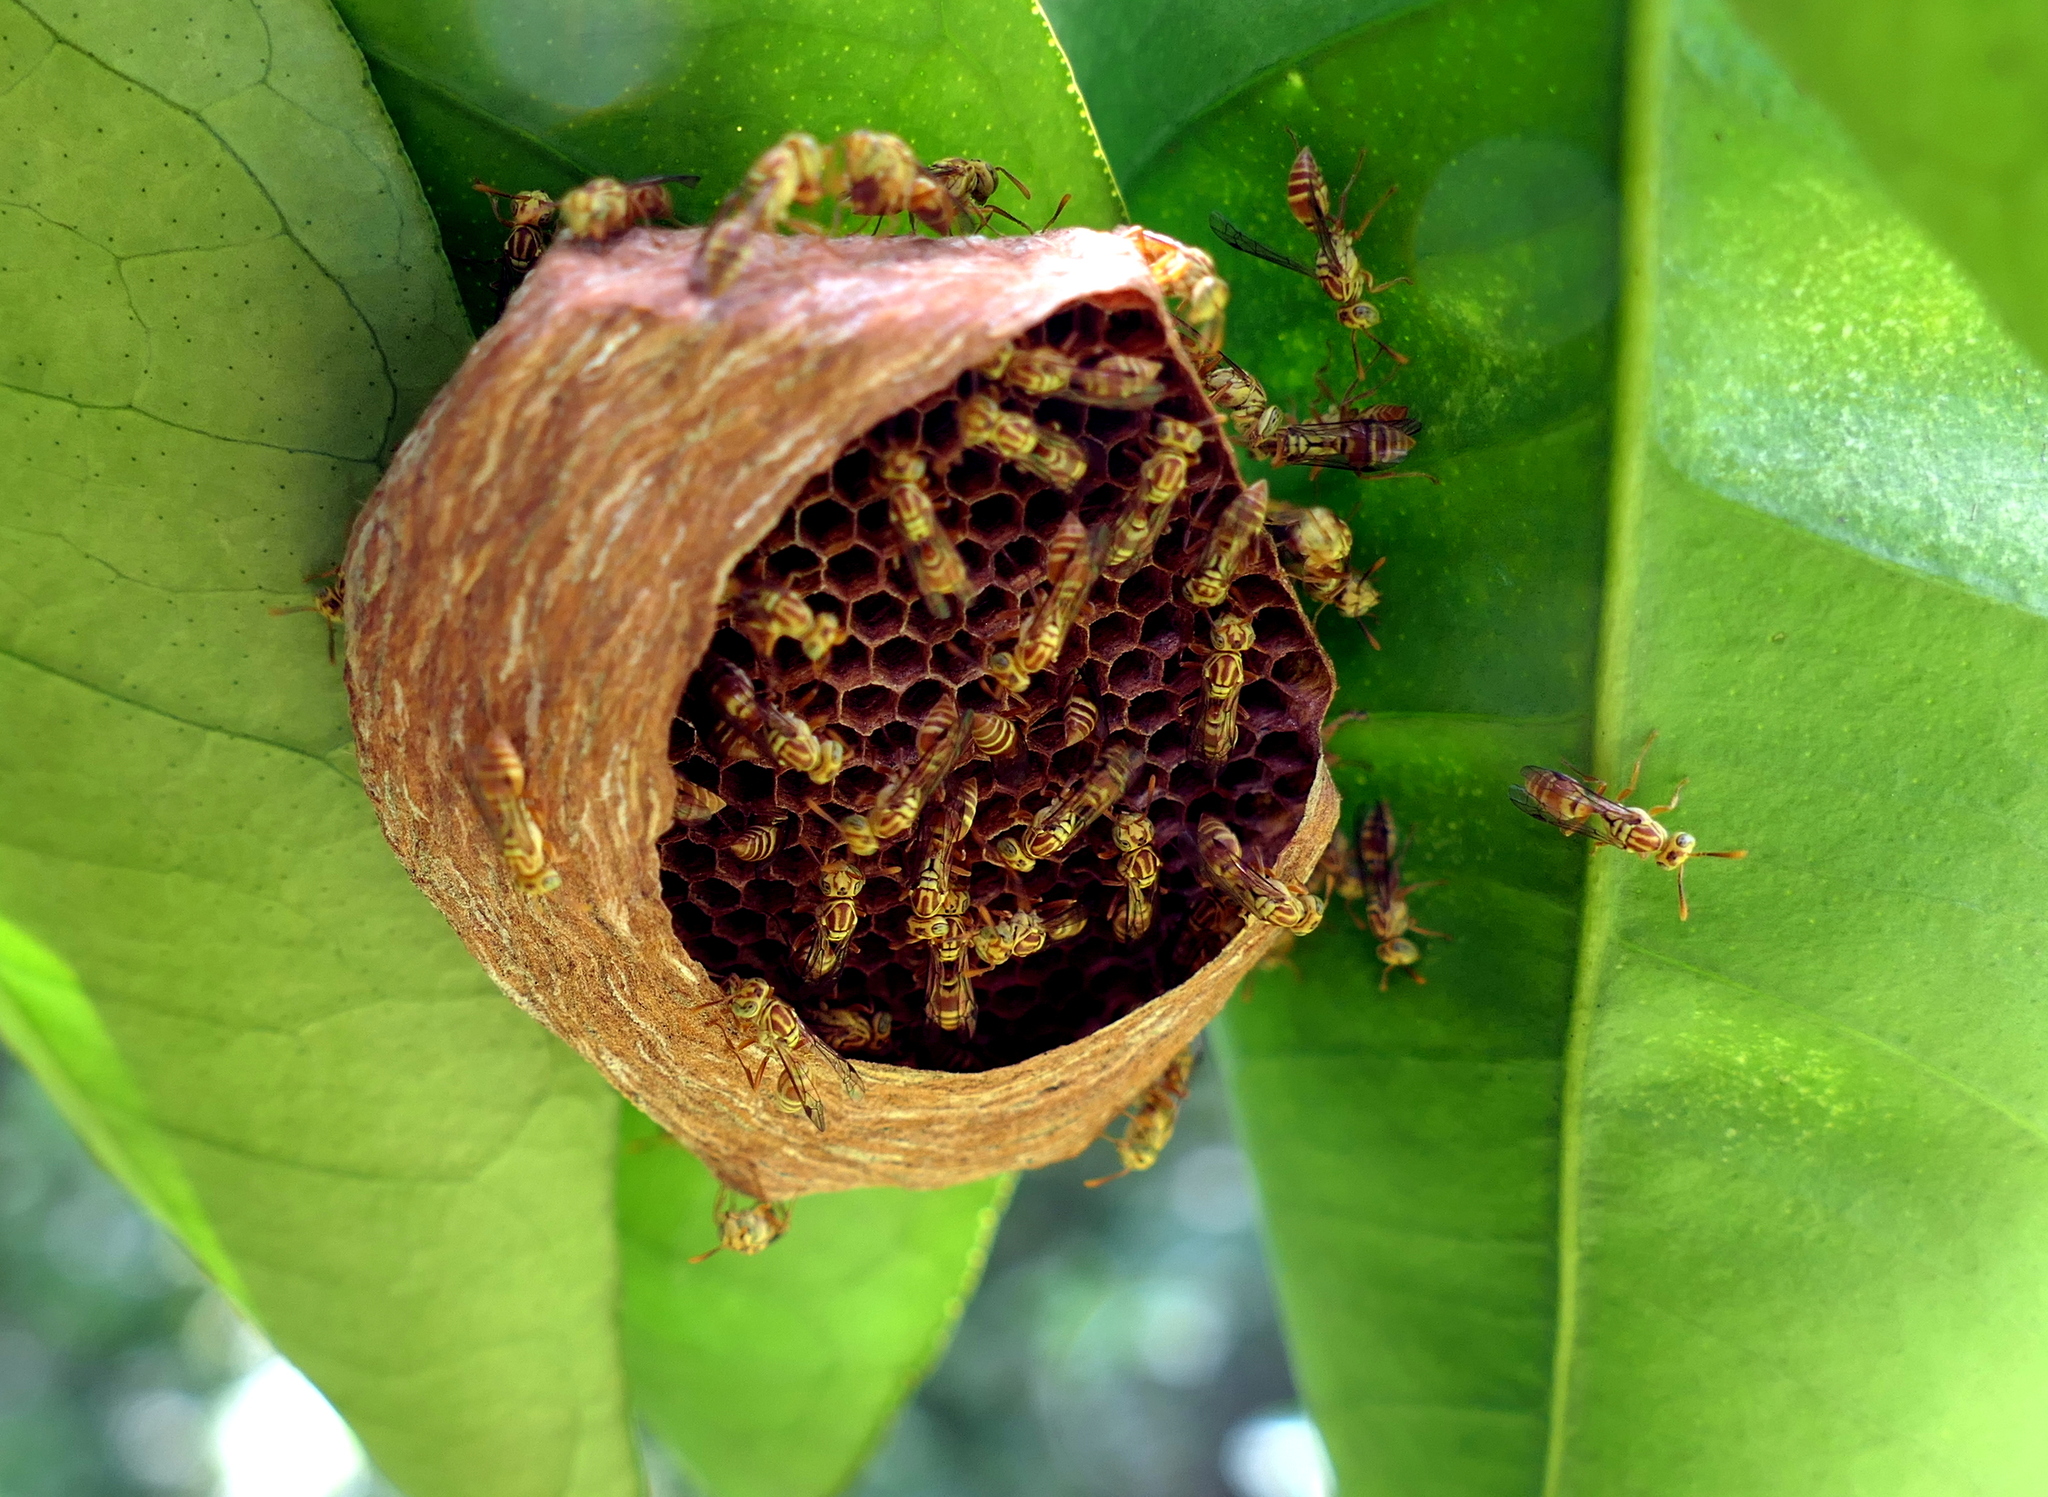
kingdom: Animalia
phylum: Arthropoda
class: Insecta
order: Hymenoptera
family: Vespidae
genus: Protopolybia
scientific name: Protopolybia potiguara
